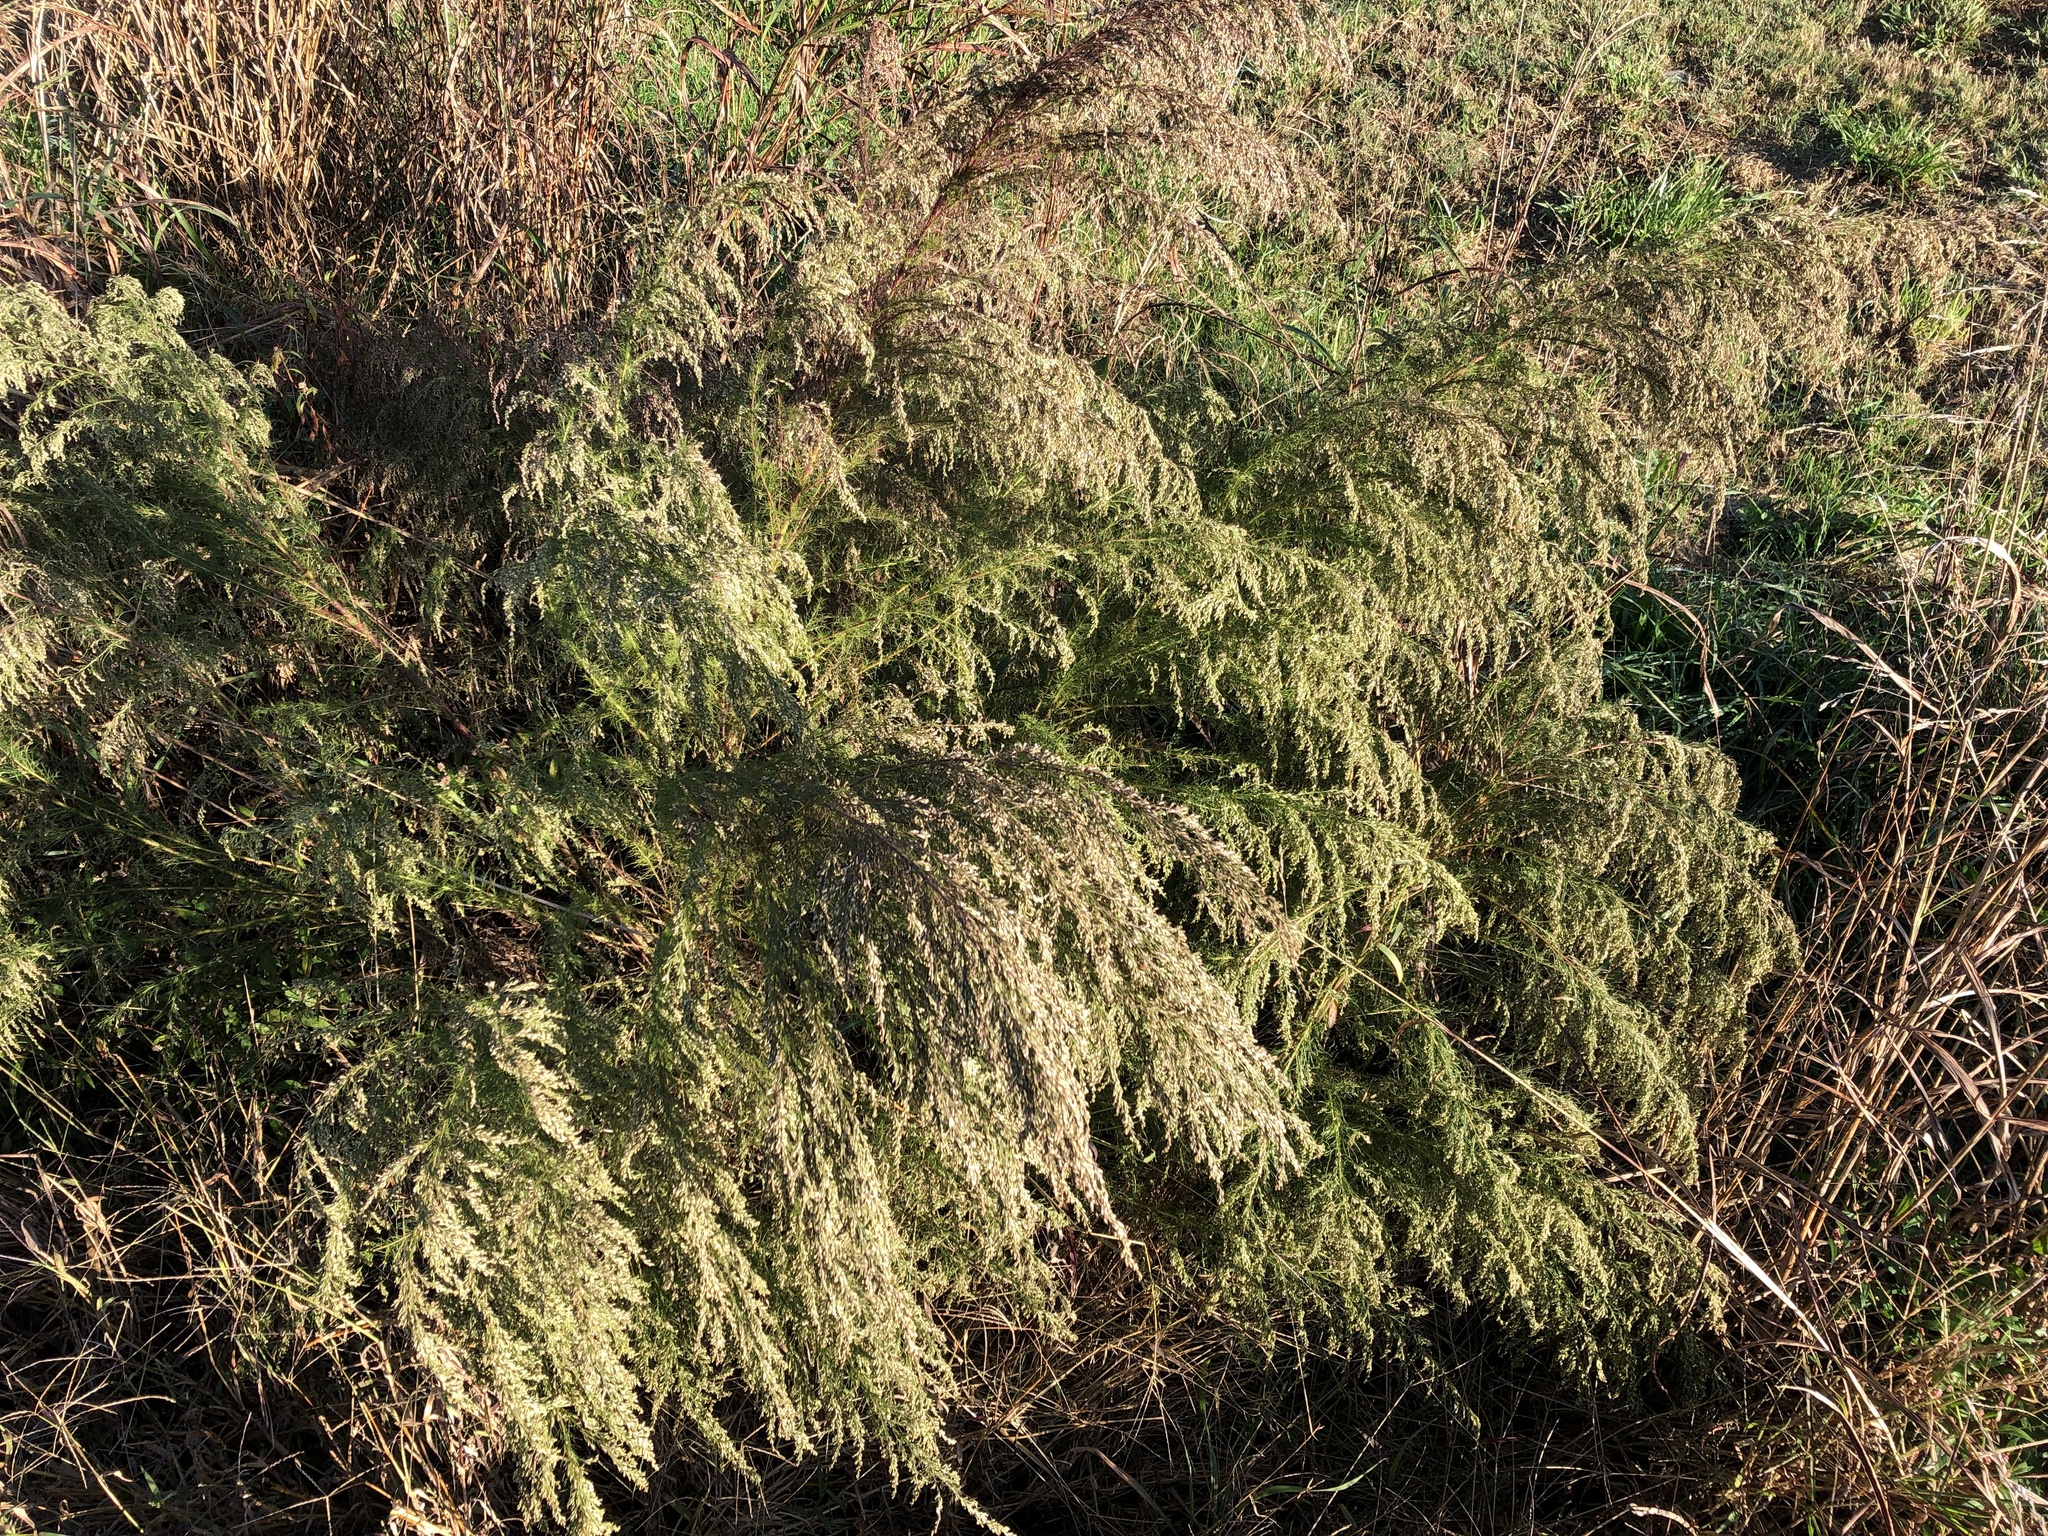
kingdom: Plantae
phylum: Tracheophyta
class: Magnoliopsida
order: Asterales
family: Asteraceae
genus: Eupatorium
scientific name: Eupatorium capillifolium
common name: Dog-fennel
